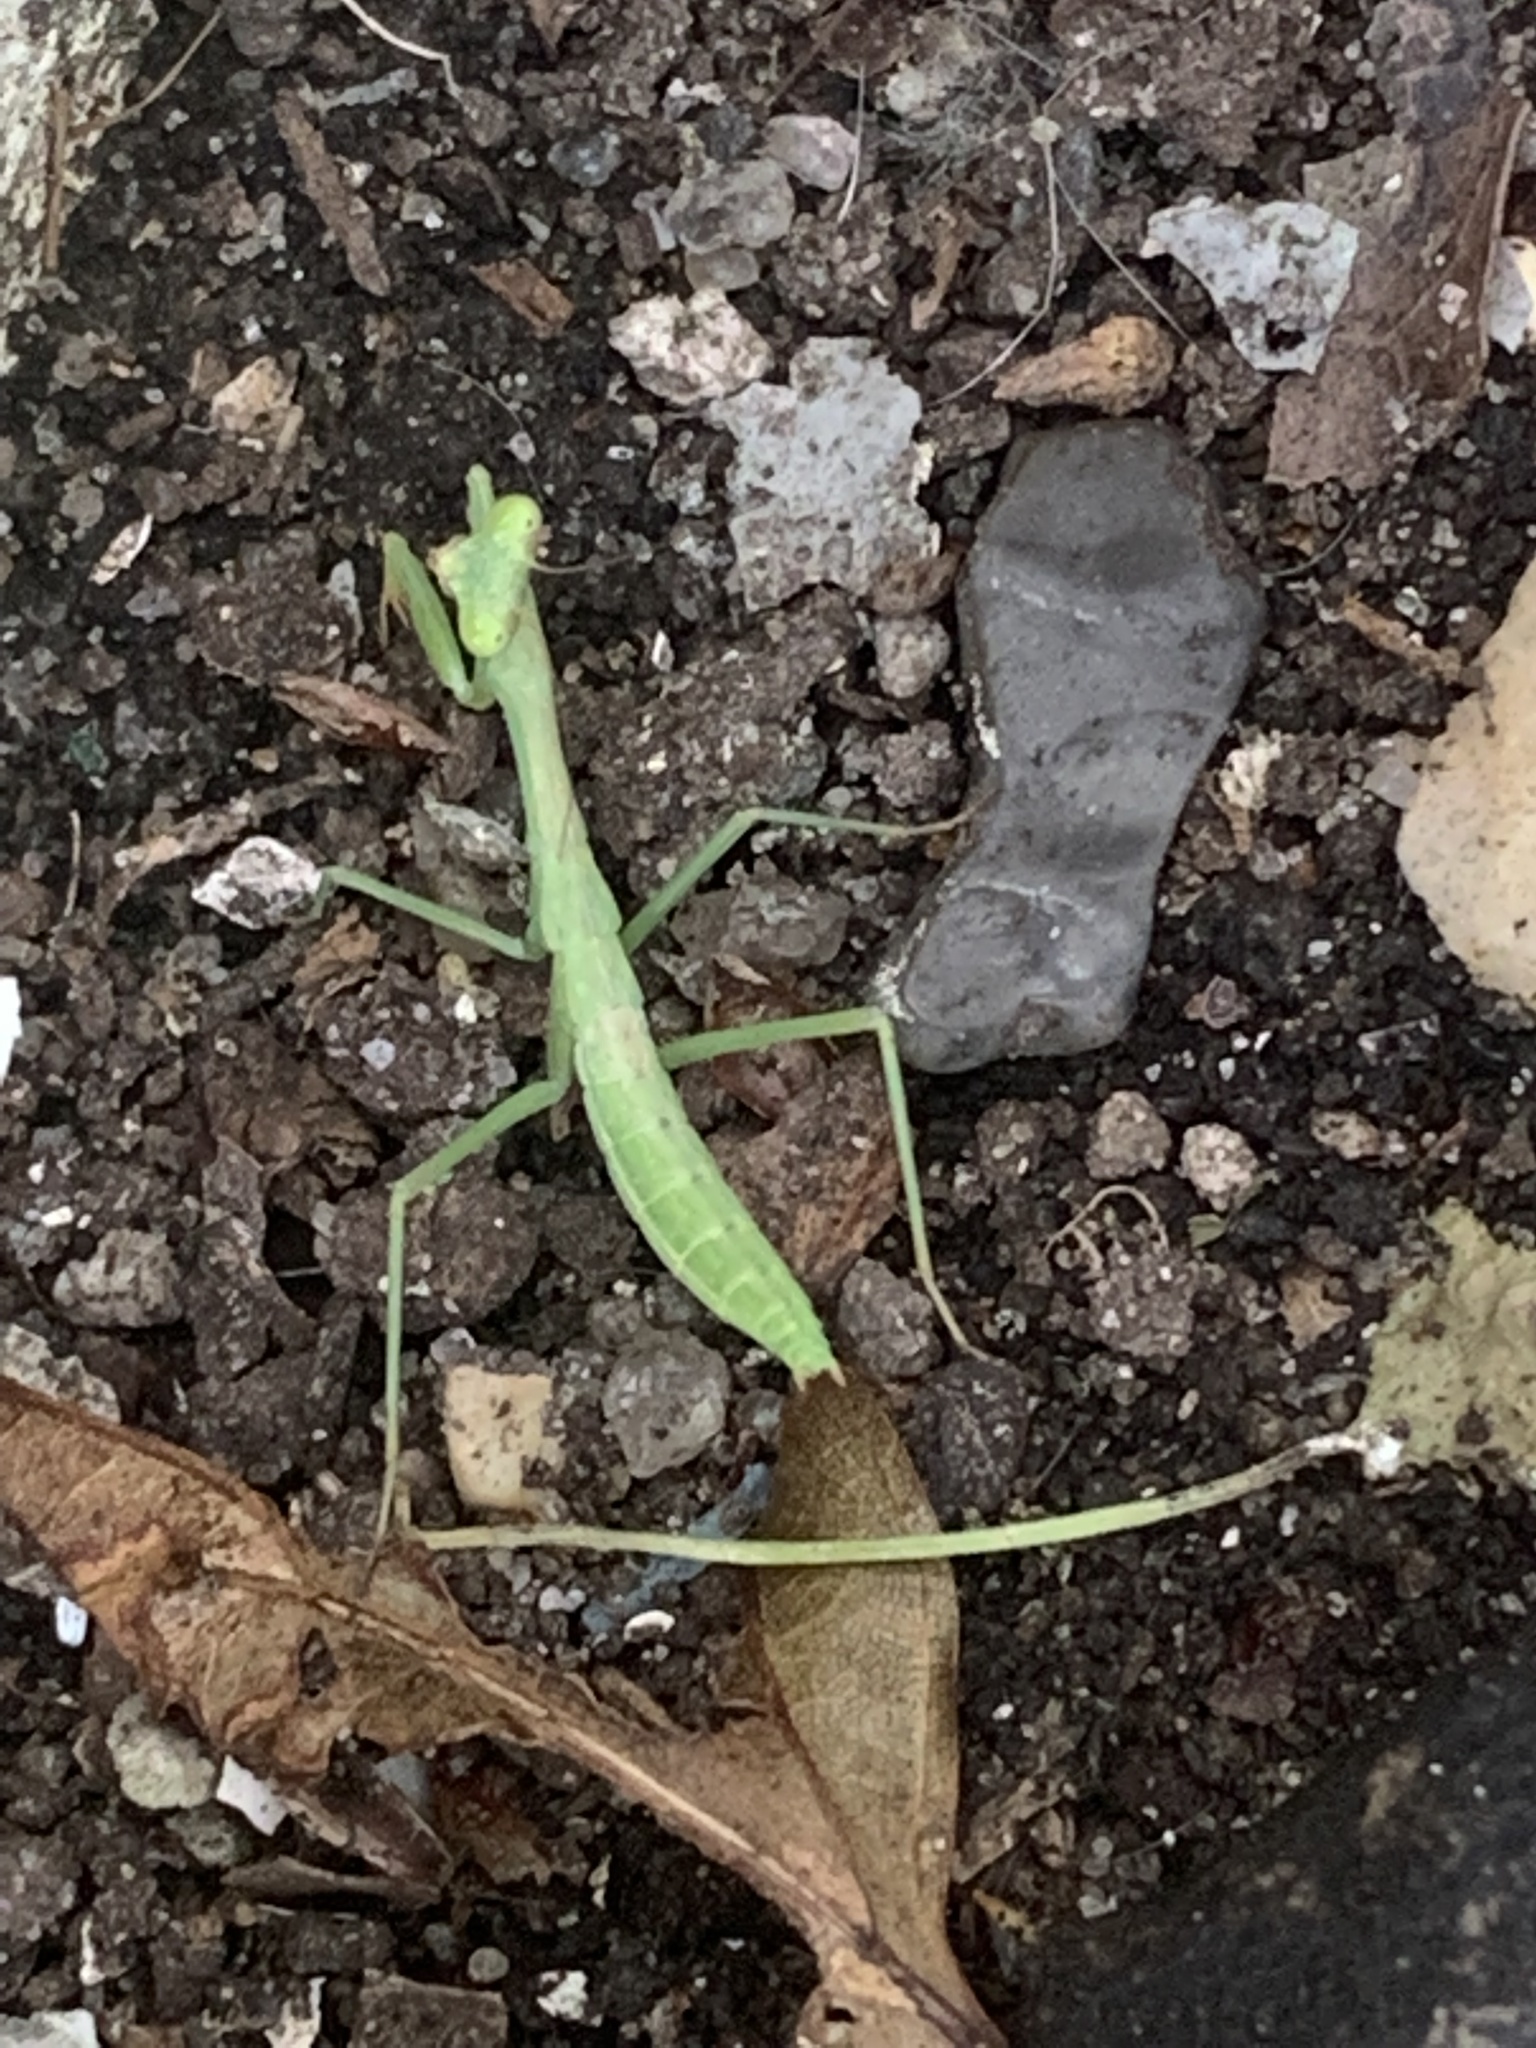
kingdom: Animalia
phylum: Arthropoda
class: Insecta
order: Mantodea
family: Mantidae
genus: Stagmomantis
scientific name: Stagmomantis carolina
